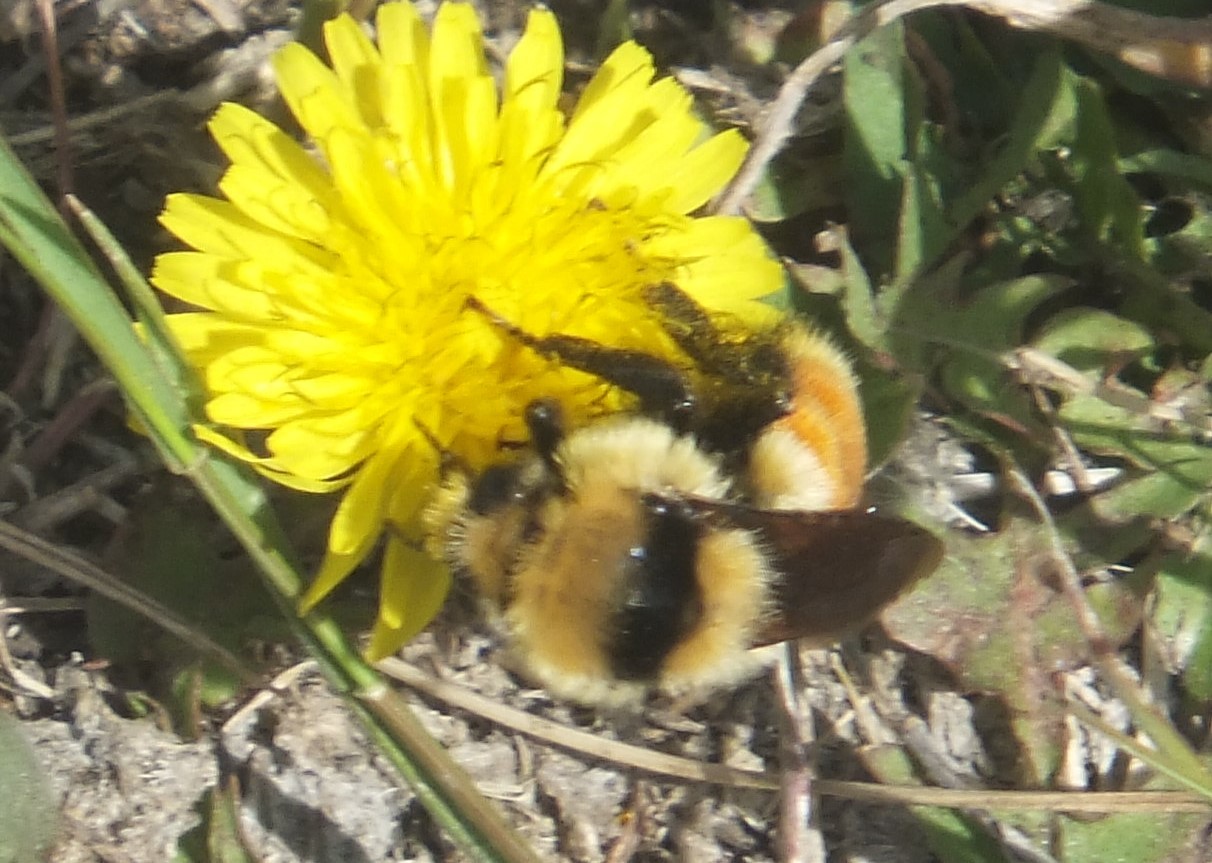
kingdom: Animalia
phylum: Arthropoda
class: Insecta
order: Hymenoptera
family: Apidae
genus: Bombus
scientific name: Bombus huntii
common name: Hunt bumble bee
